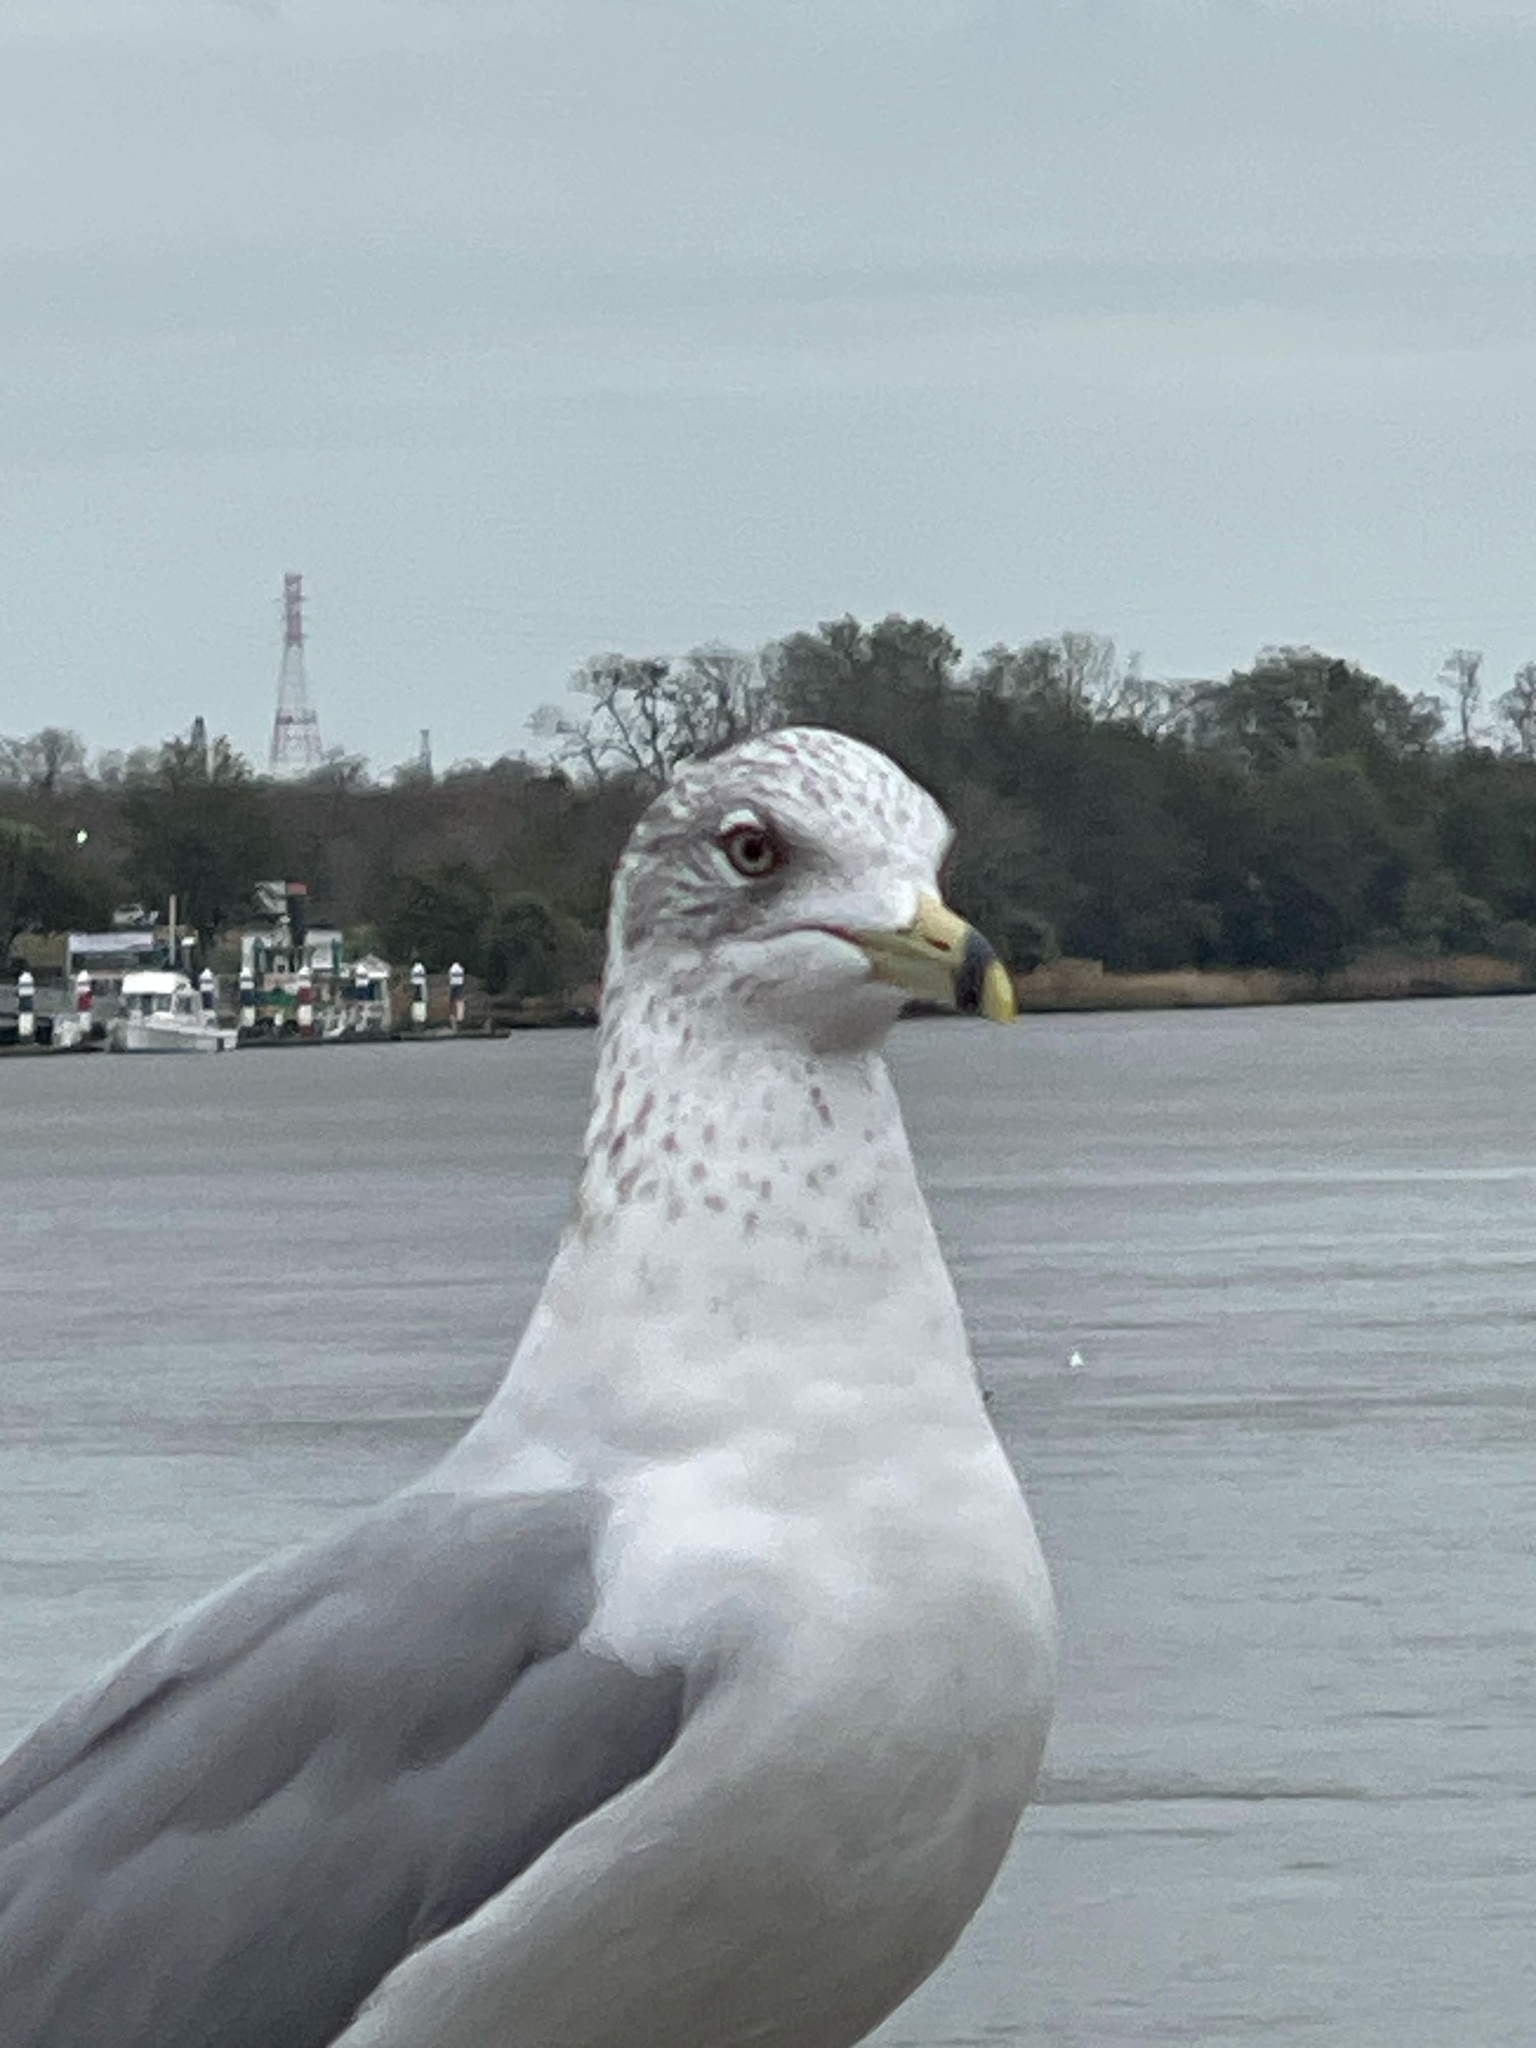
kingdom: Animalia
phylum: Chordata
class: Aves
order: Charadriiformes
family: Laridae
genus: Larus
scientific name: Larus delawarensis
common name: Ring-billed gull
